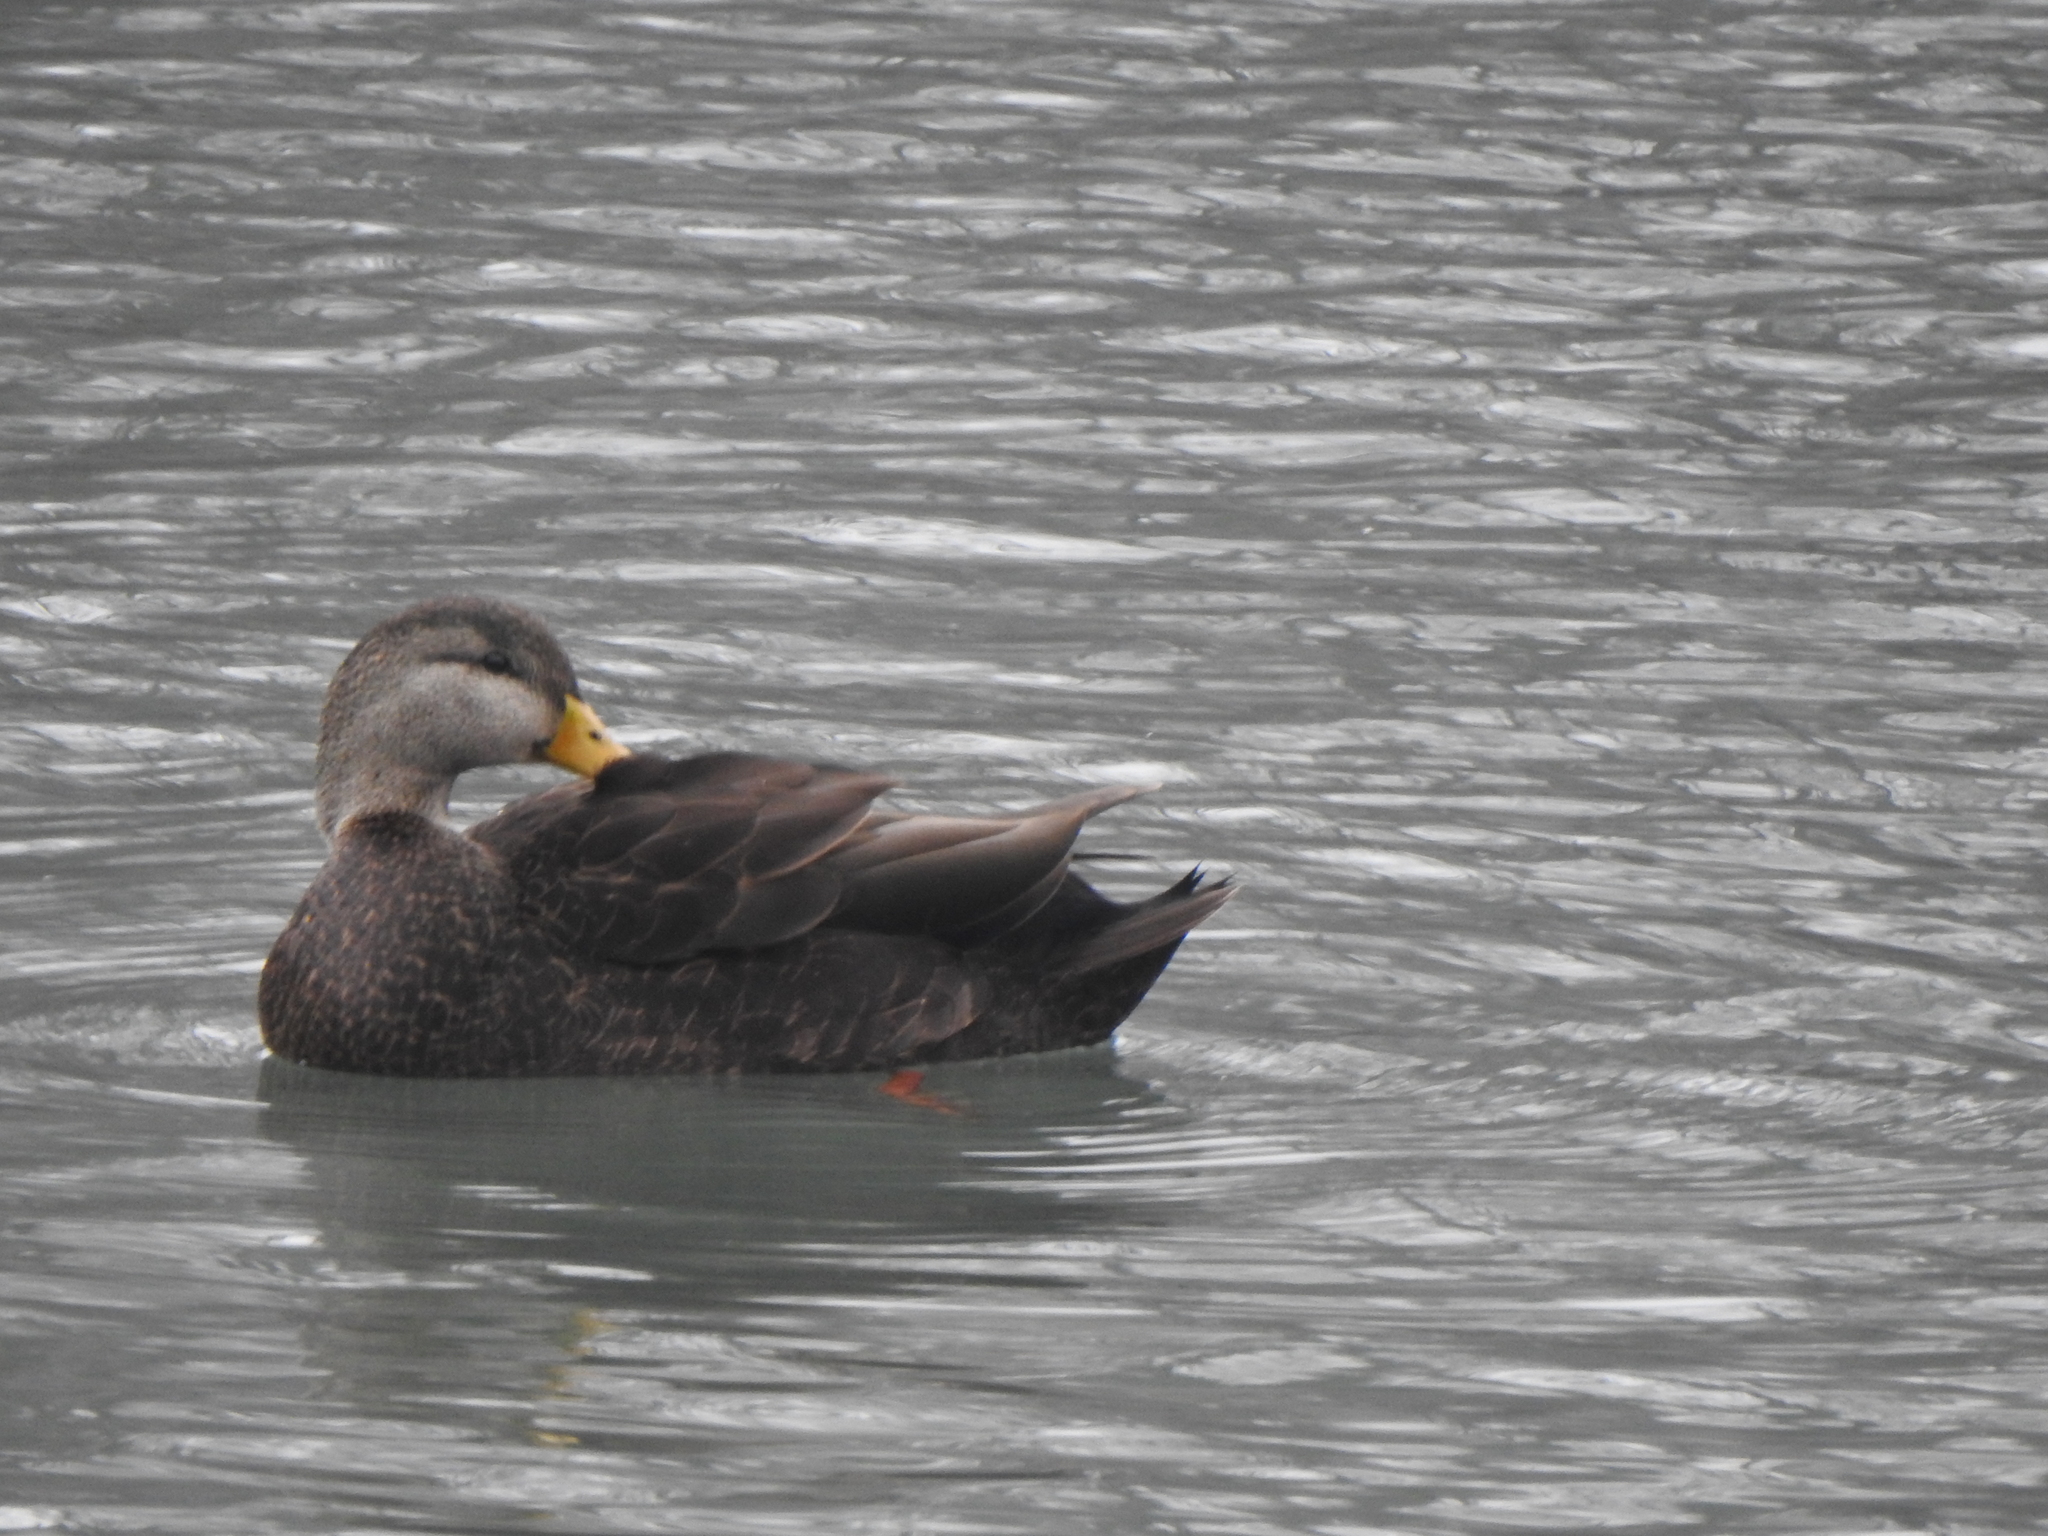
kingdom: Animalia
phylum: Chordata
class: Aves
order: Anseriformes
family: Anatidae
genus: Anas
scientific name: Anas rubripes
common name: American black duck
